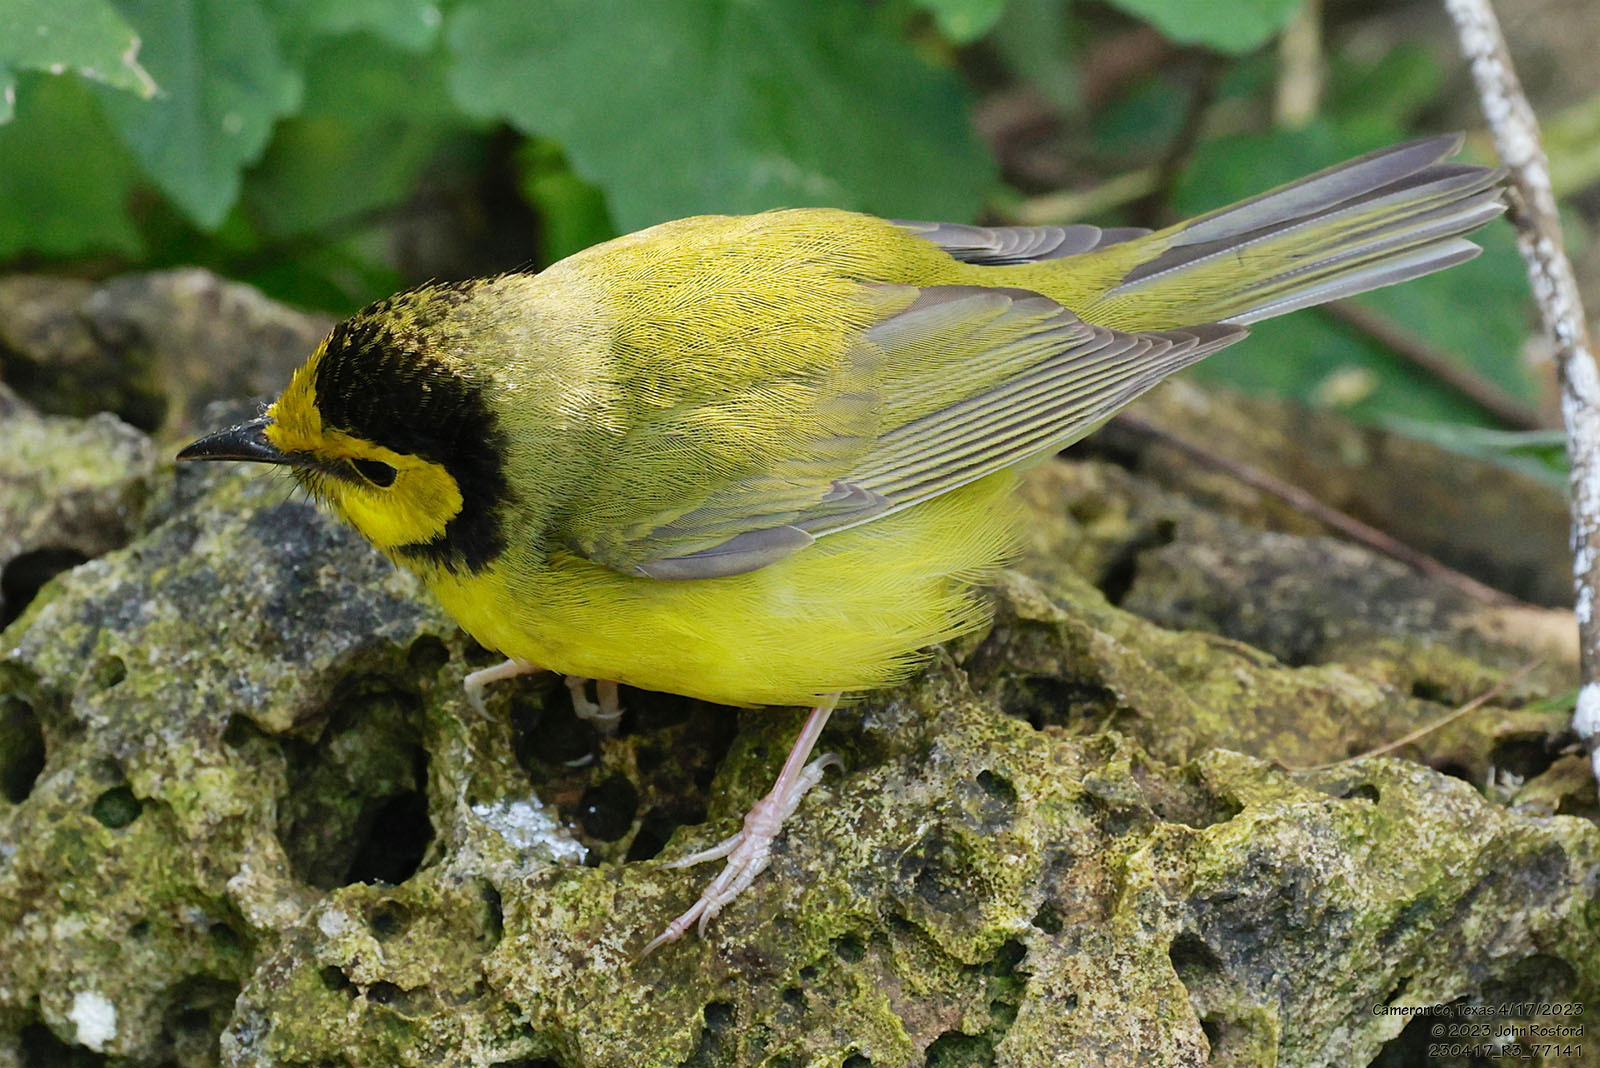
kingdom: Animalia
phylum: Chordata
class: Aves
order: Passeriformes
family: Parulidae
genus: Setophaga
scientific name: Setophaga citrina
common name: Hooded warbler
